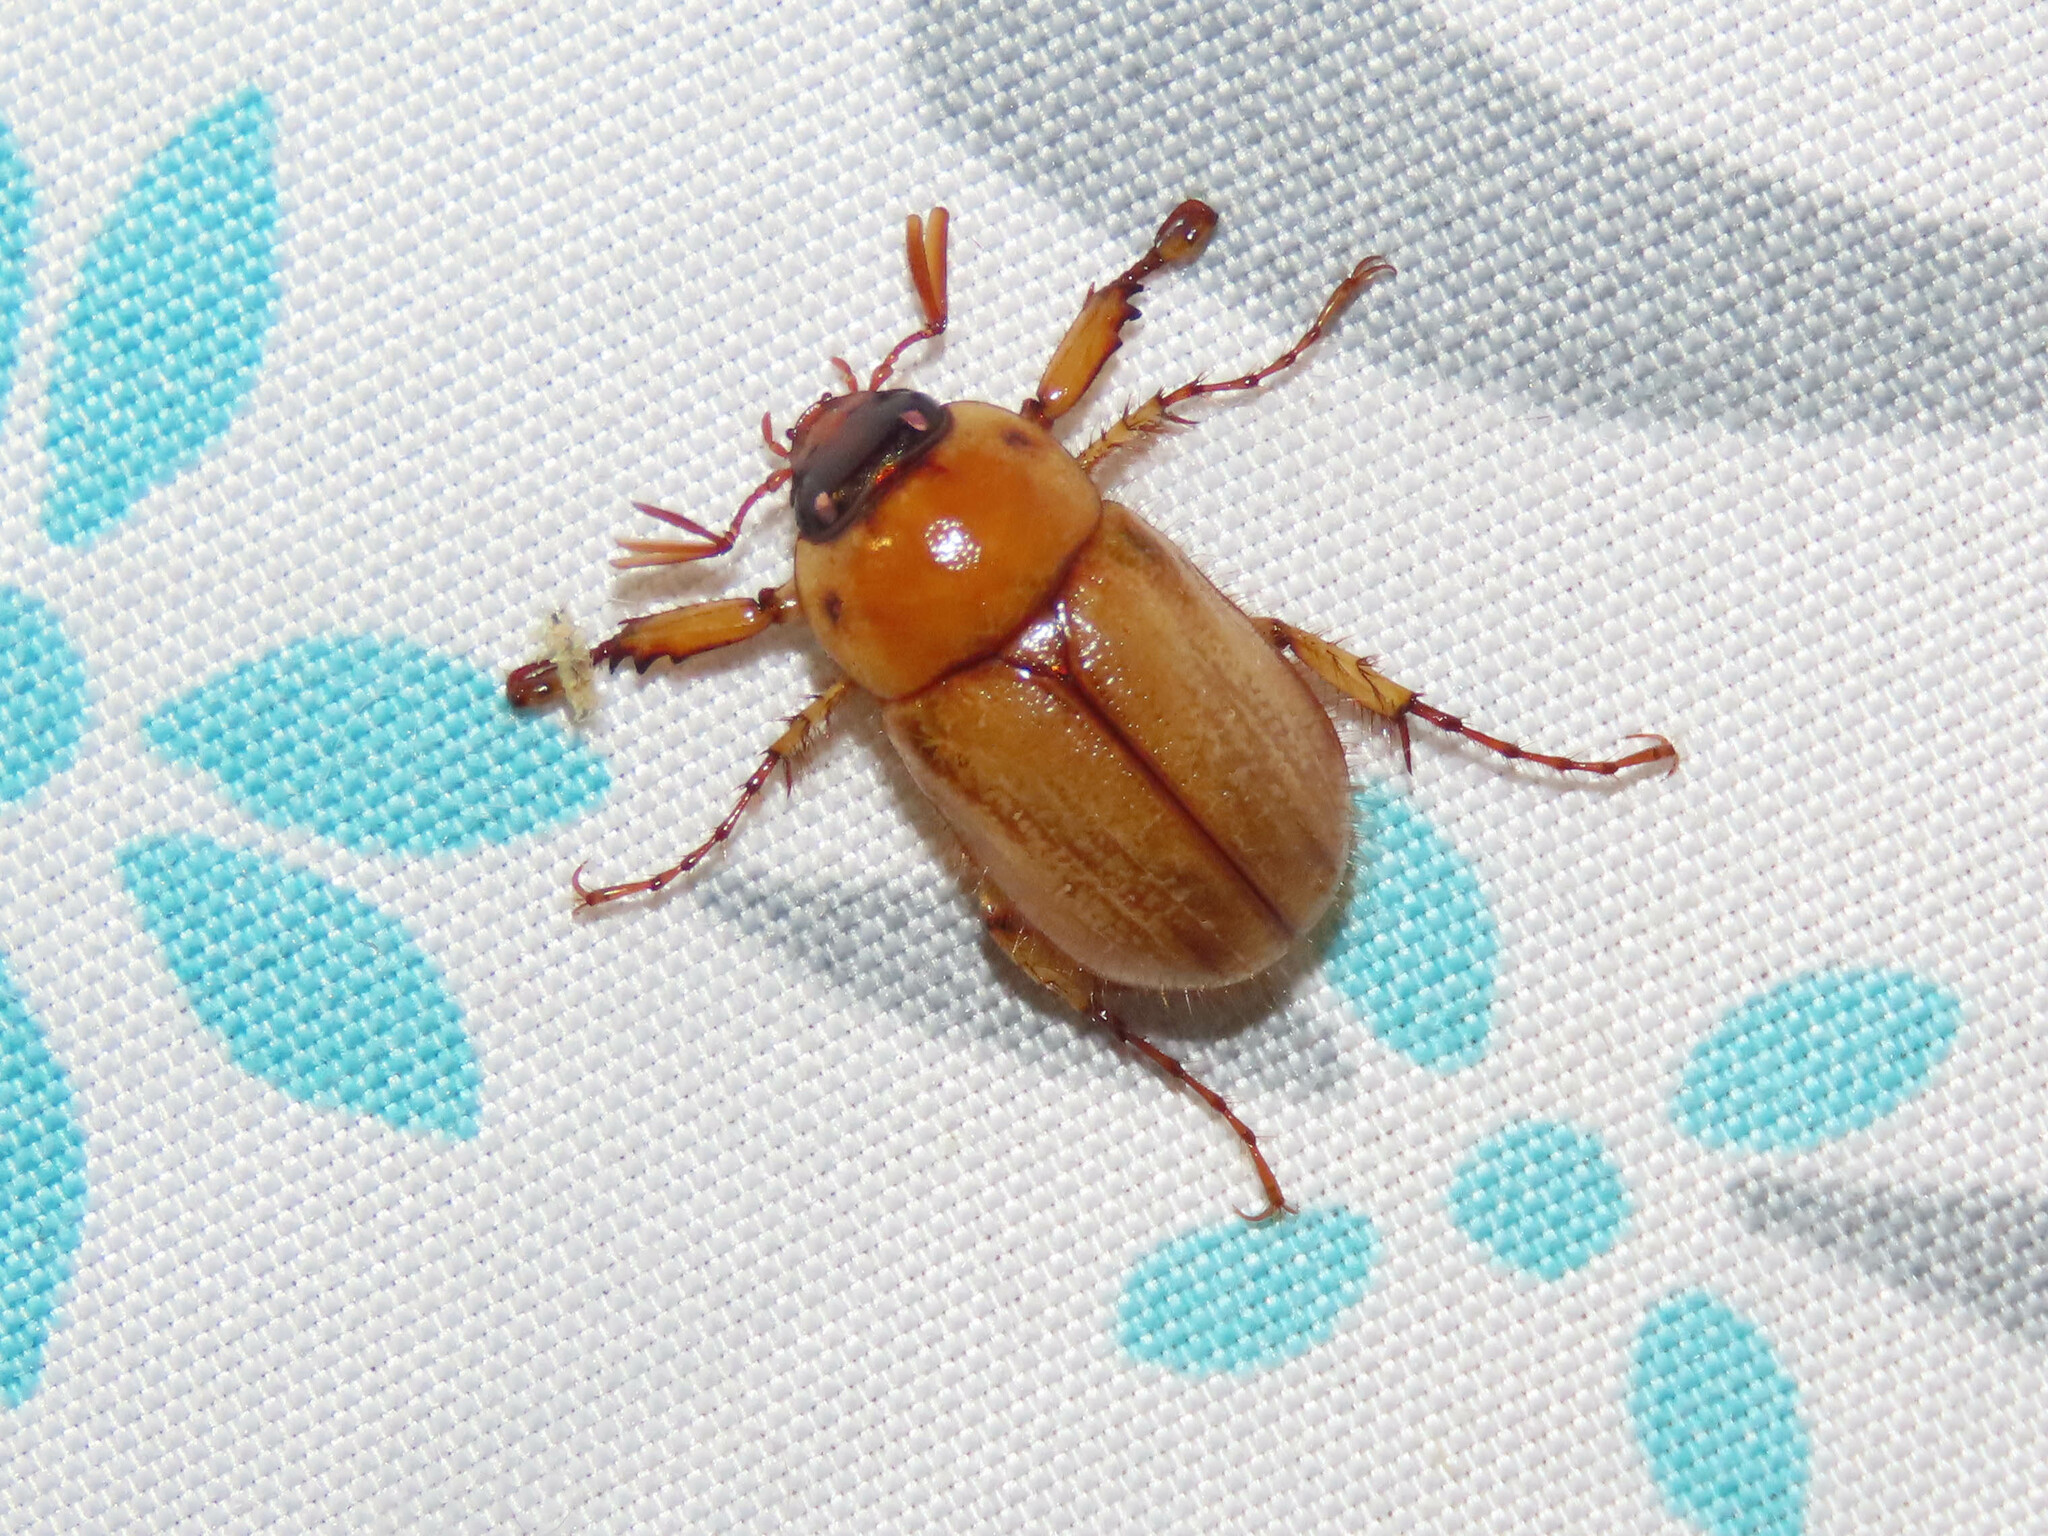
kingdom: Animalia
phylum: Arthropoda
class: Insecta
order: Coleoptera
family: Scarabaeidae
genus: Cyclocephala
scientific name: Cyclocephala lurida
